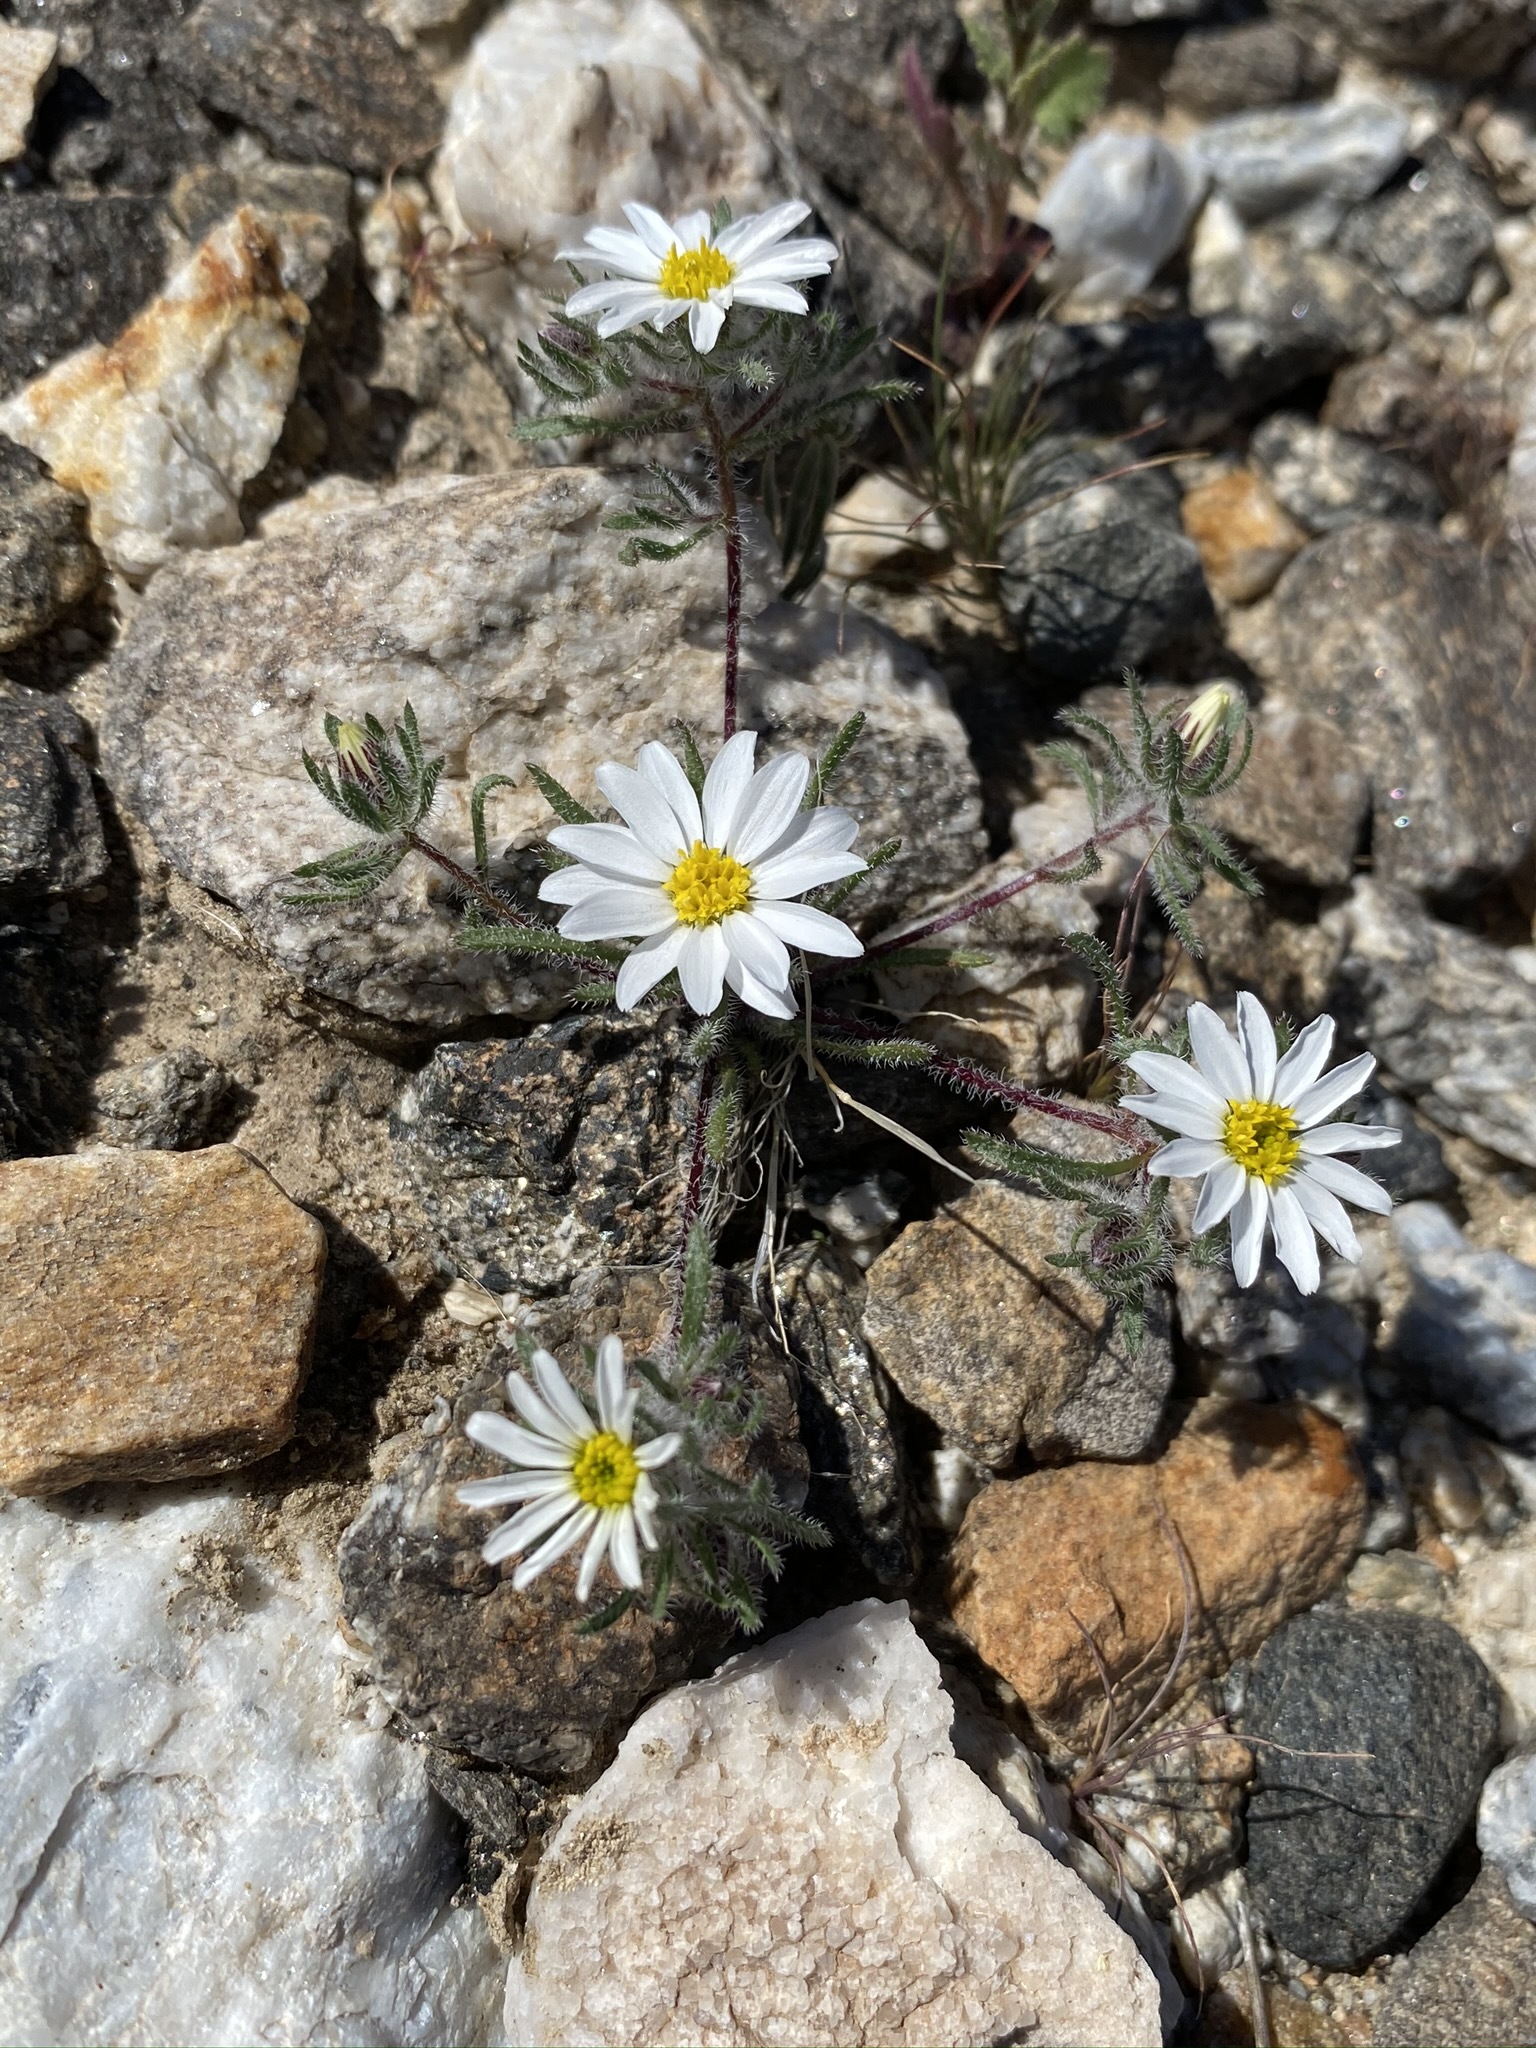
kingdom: Plantae
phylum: Tracheophyta
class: Magnoliopsida
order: Asterales
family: Asteraceae
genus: Monoptilon
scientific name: Monoptilon bellioides
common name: Bristly desertstar
